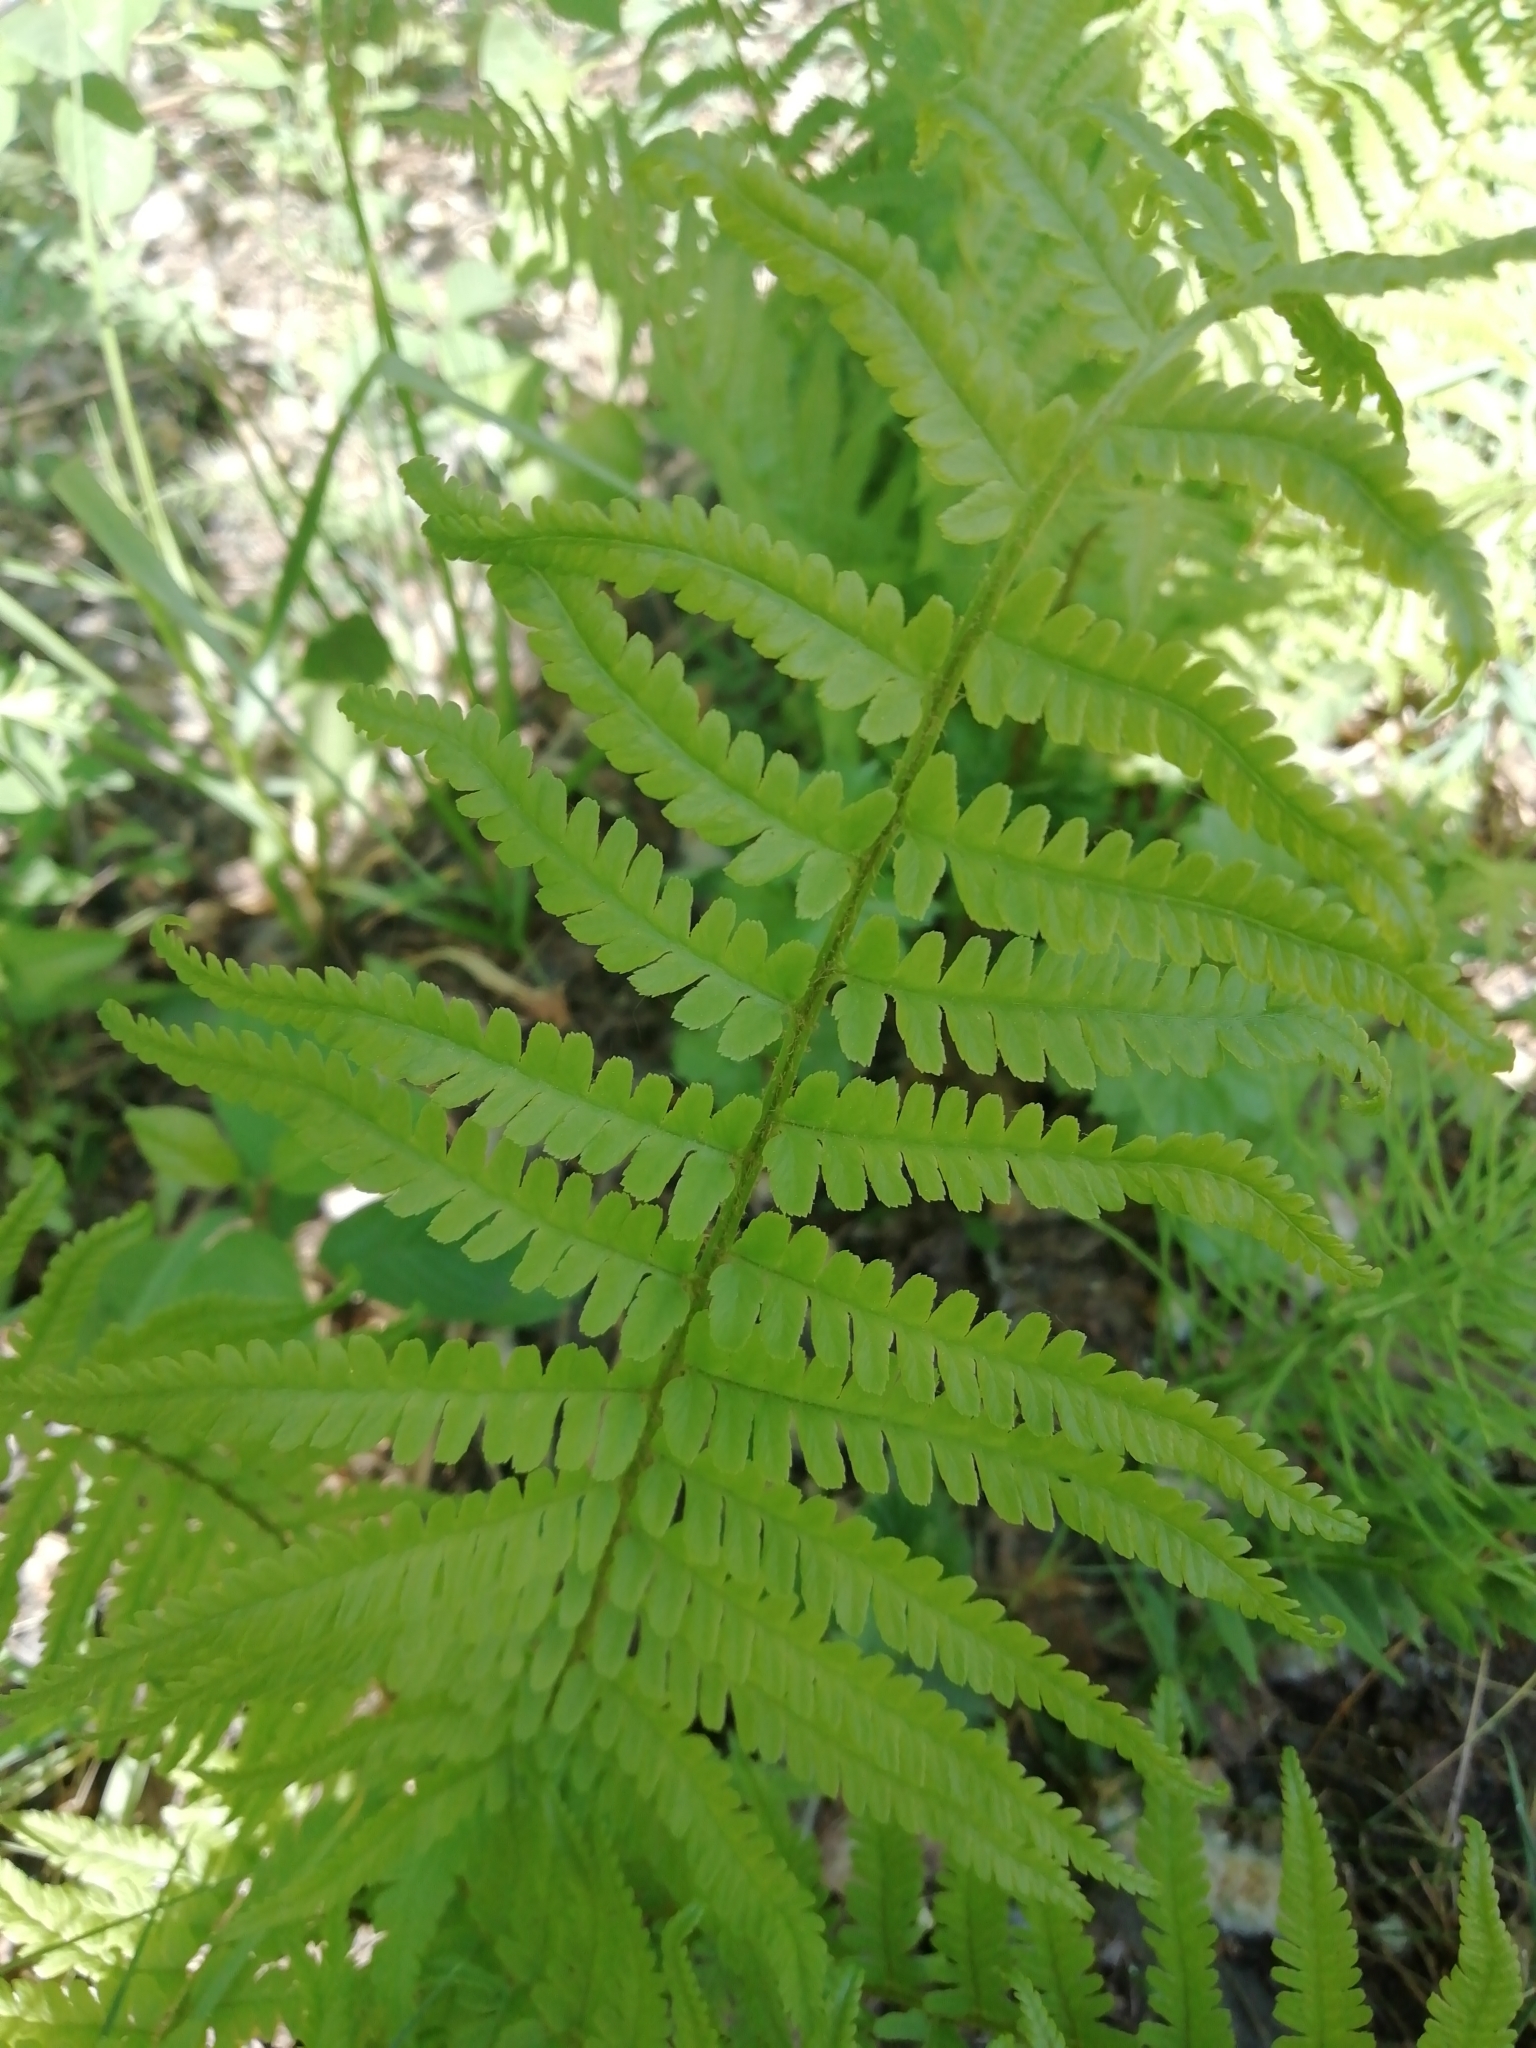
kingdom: Plantae
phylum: Tracheophyta
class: Polypodiopsida
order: Polypodiales
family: Dryopteridaceae
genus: Dryopteris
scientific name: Dryopteris filix-mas
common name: Male fern
